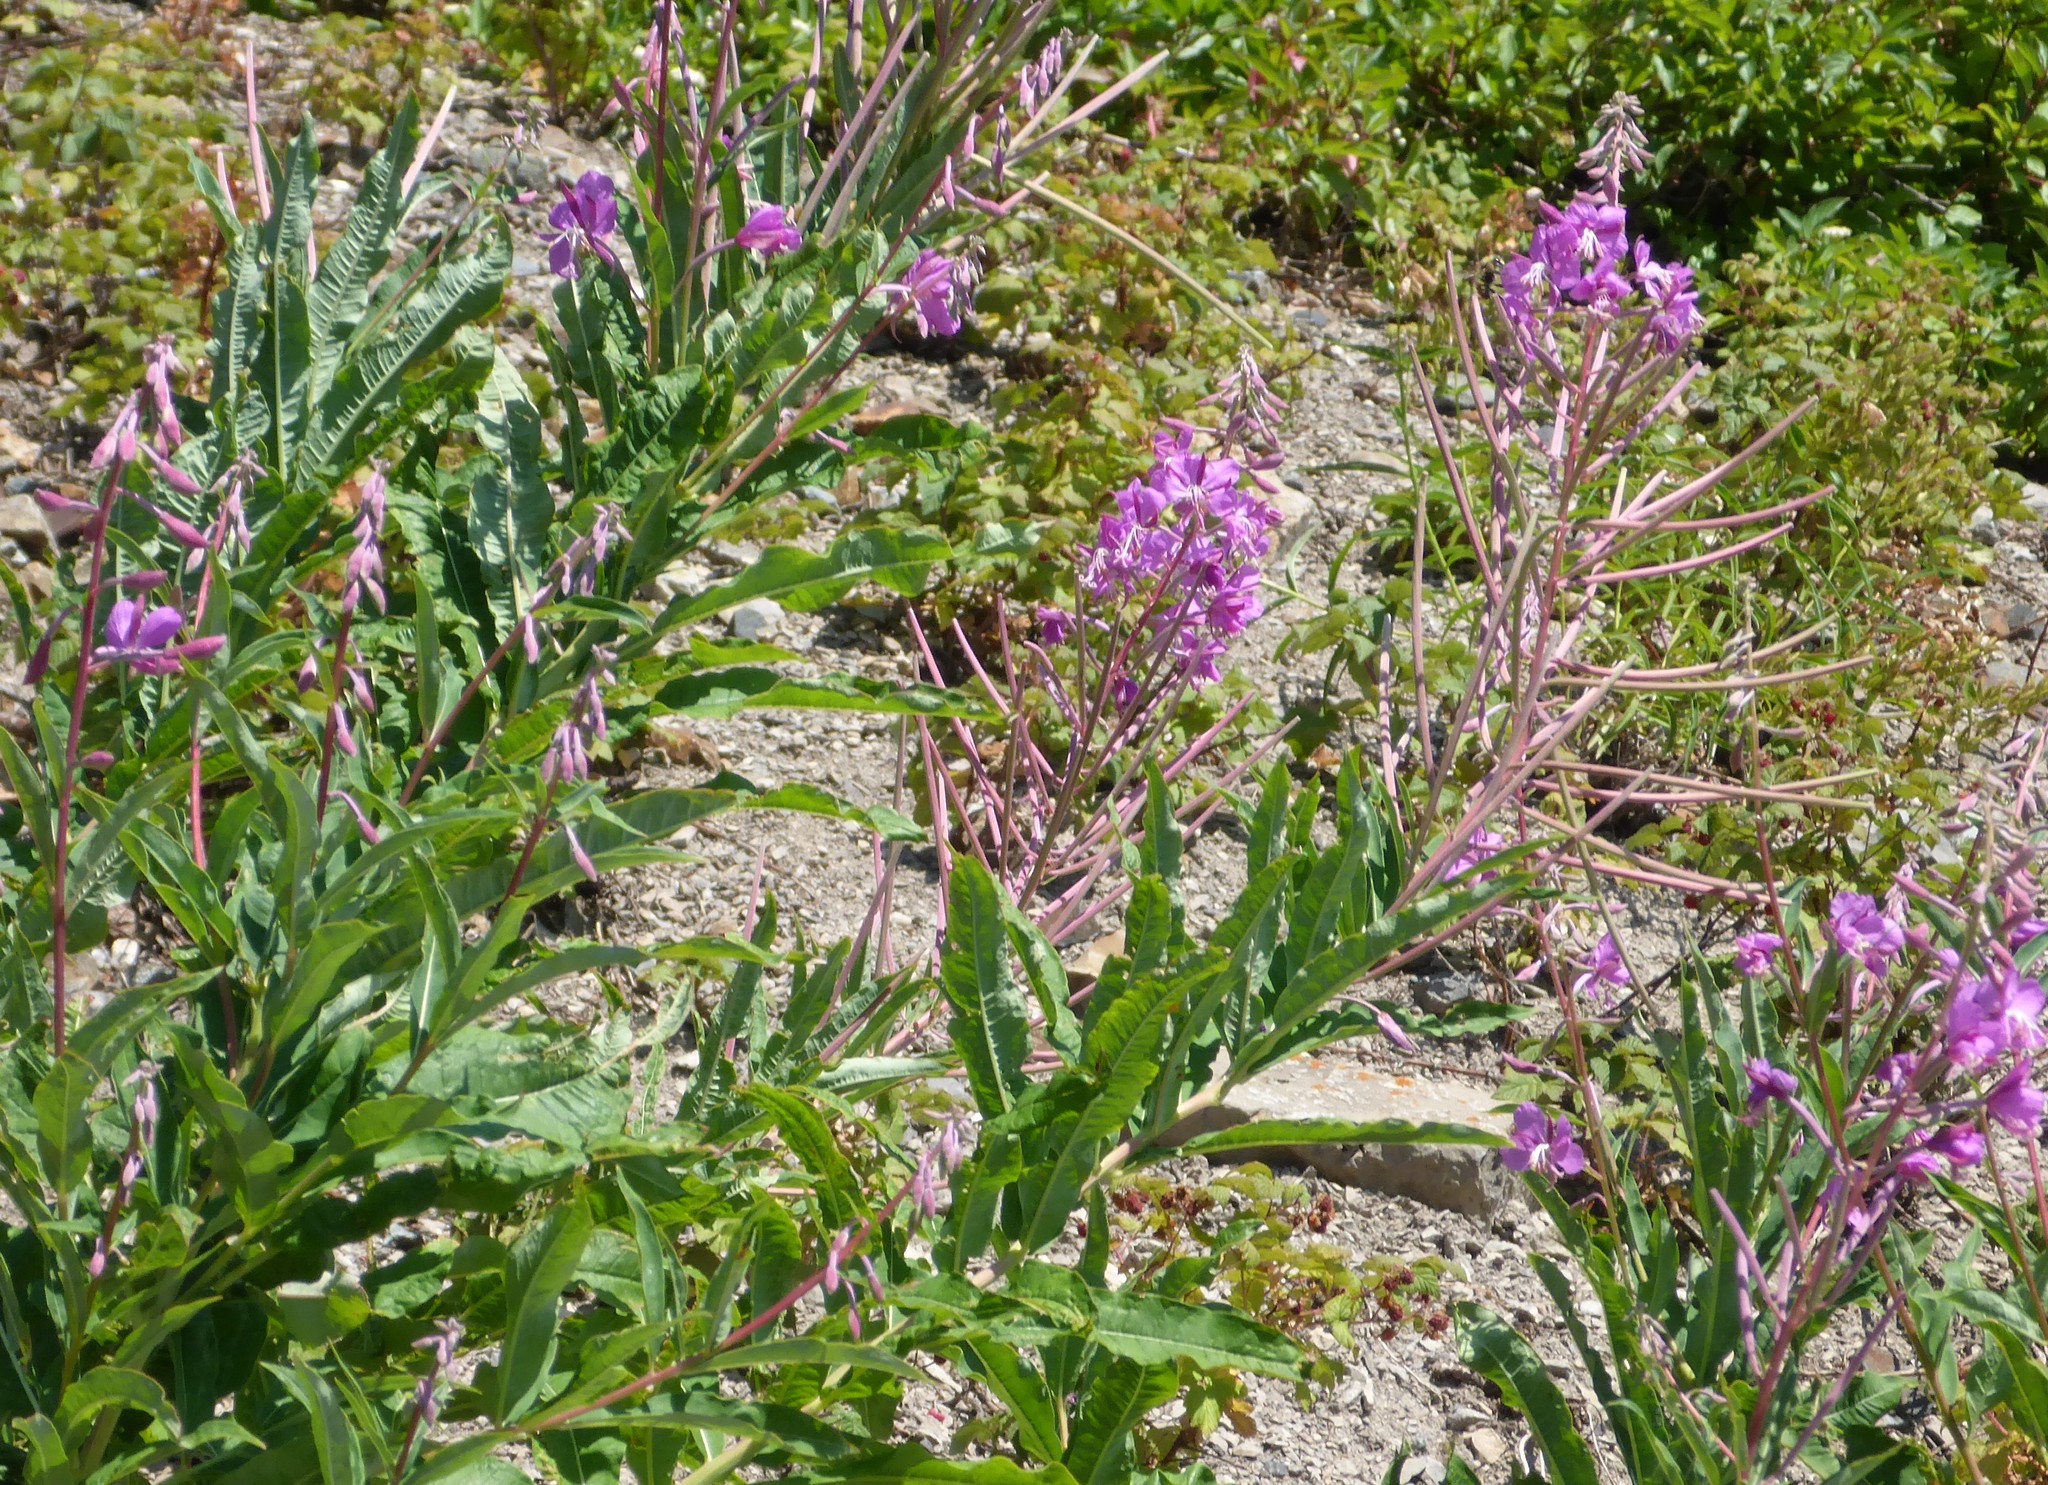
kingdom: Plantae
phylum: Tracheophyta
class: Magnoliopsida
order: Myrtales
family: Onagraceae
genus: Chamaenerion
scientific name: Chamaenerion angustifolium
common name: Fireweed
